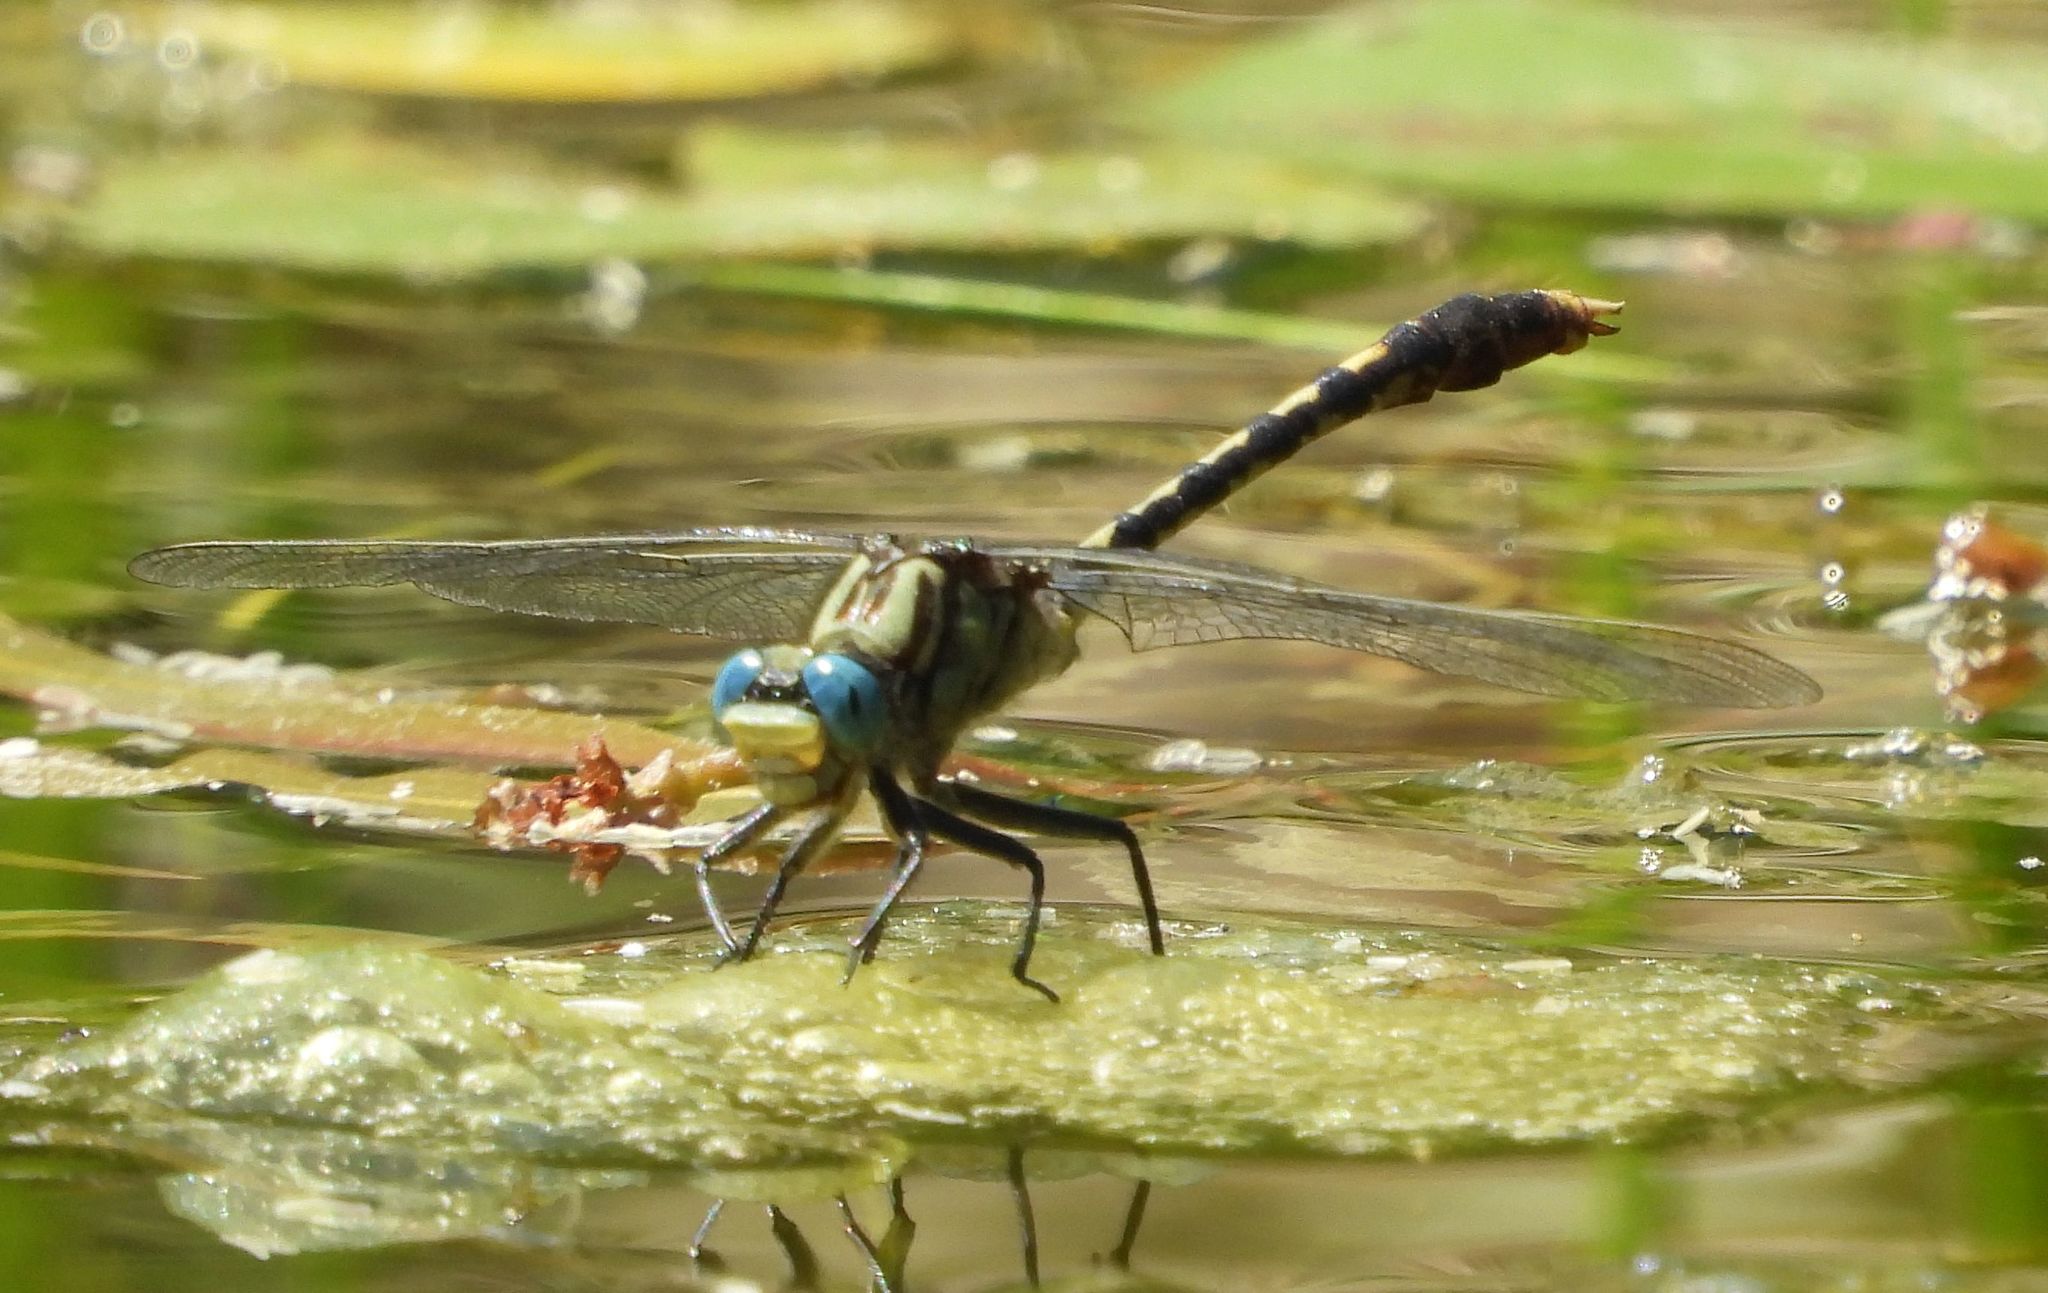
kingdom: Animalia
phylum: Arthropoda
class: Insecta
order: Odonata
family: Gomphidae
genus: Arigomphus
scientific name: Arigomphus villosipes
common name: Unicorn clubtail
